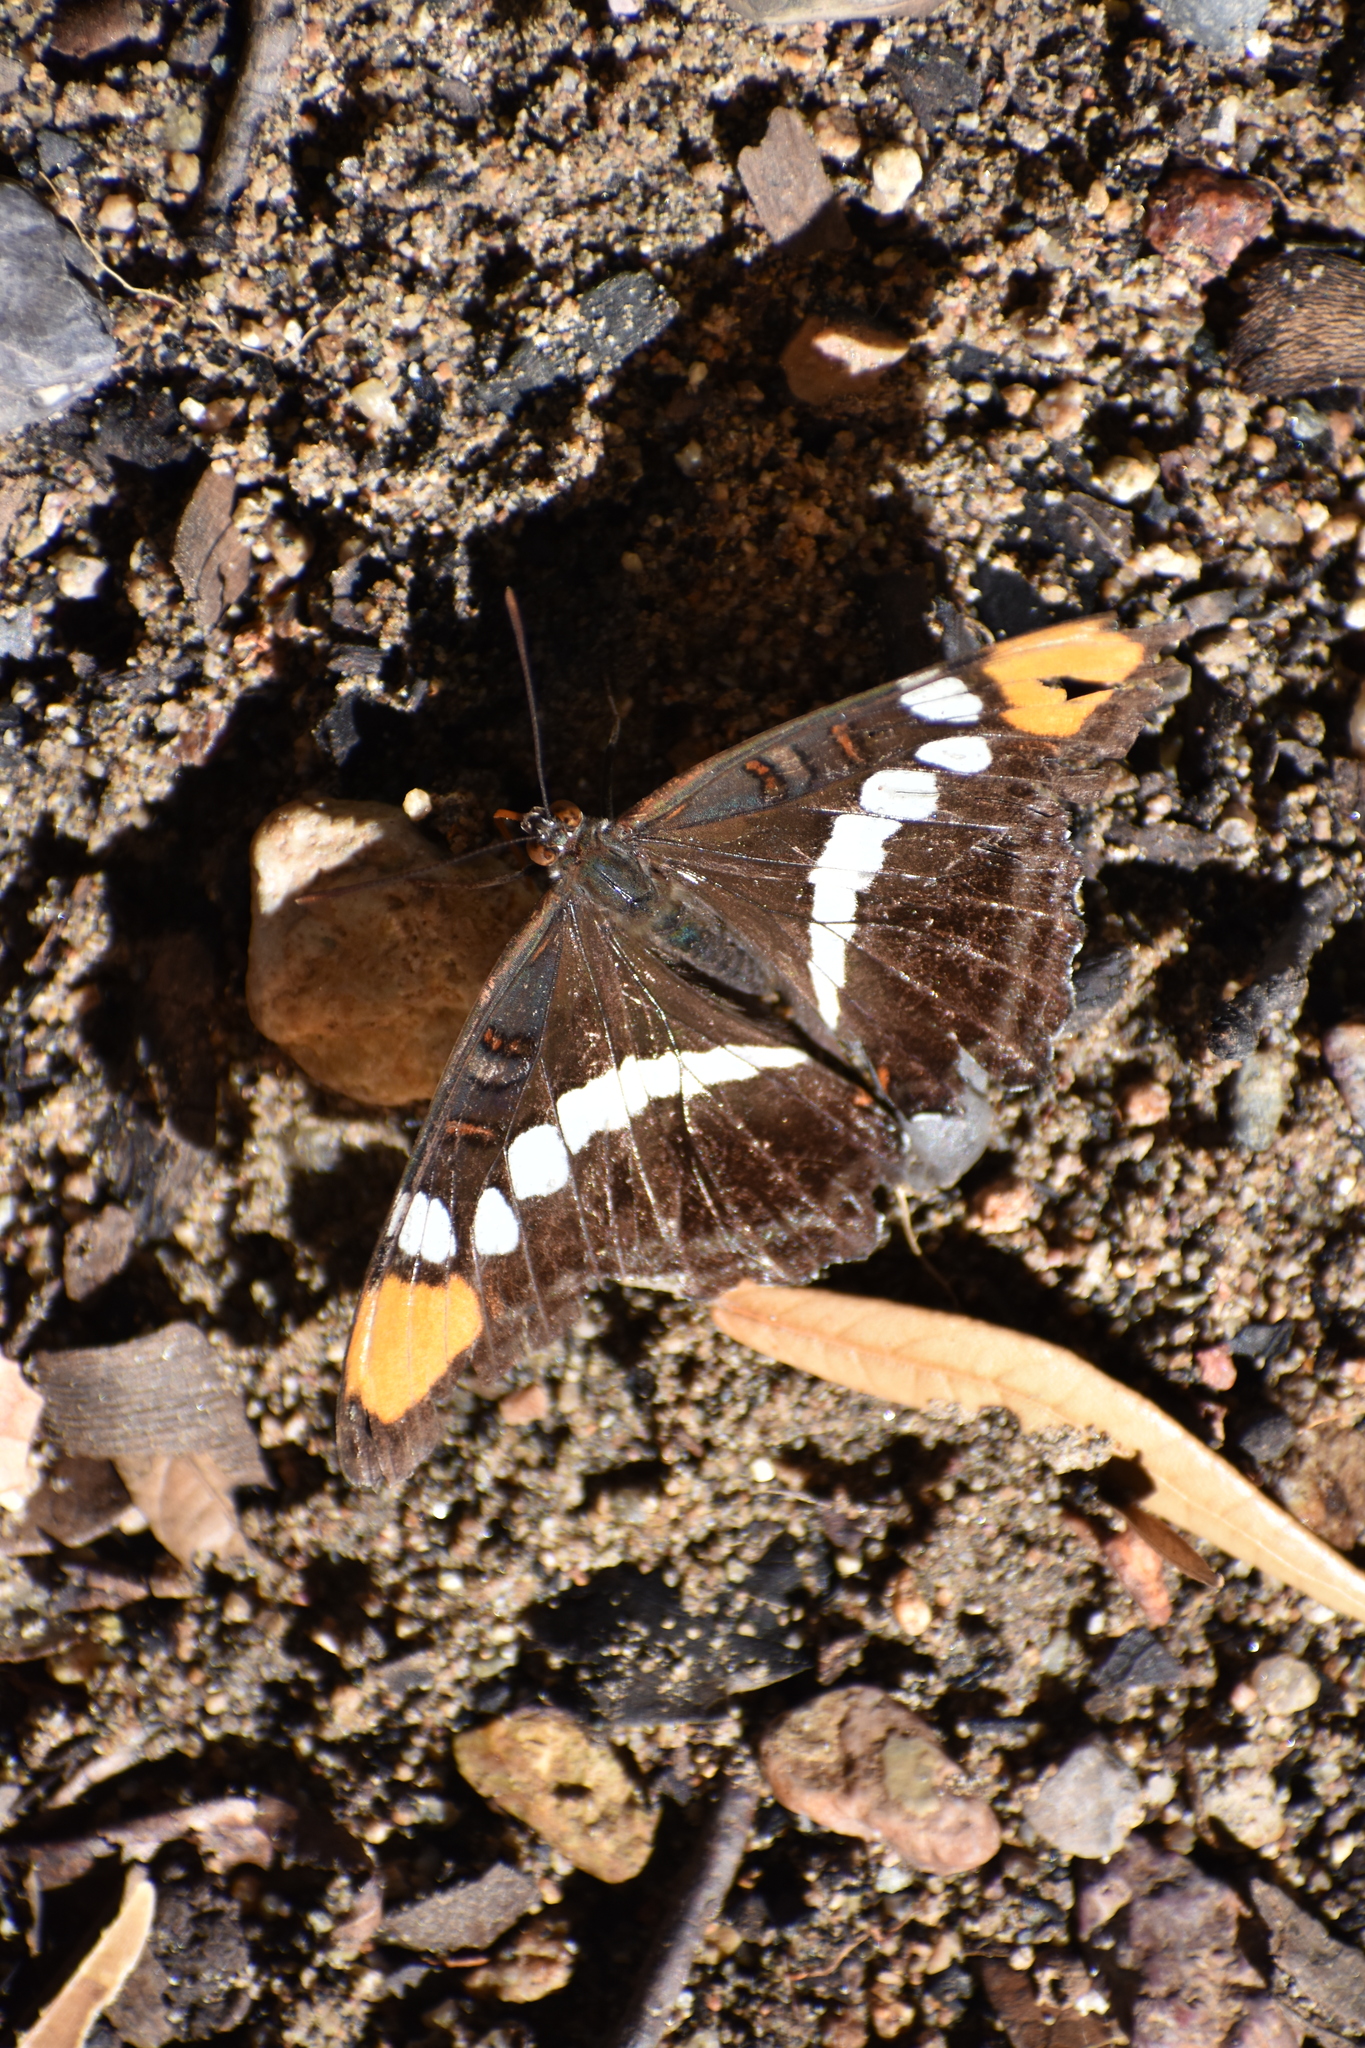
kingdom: Animalia
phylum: Arthropoda
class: Insecta
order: Lepidoptera
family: Nymphalidae
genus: Limenitis
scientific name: Limenitis bredowii
